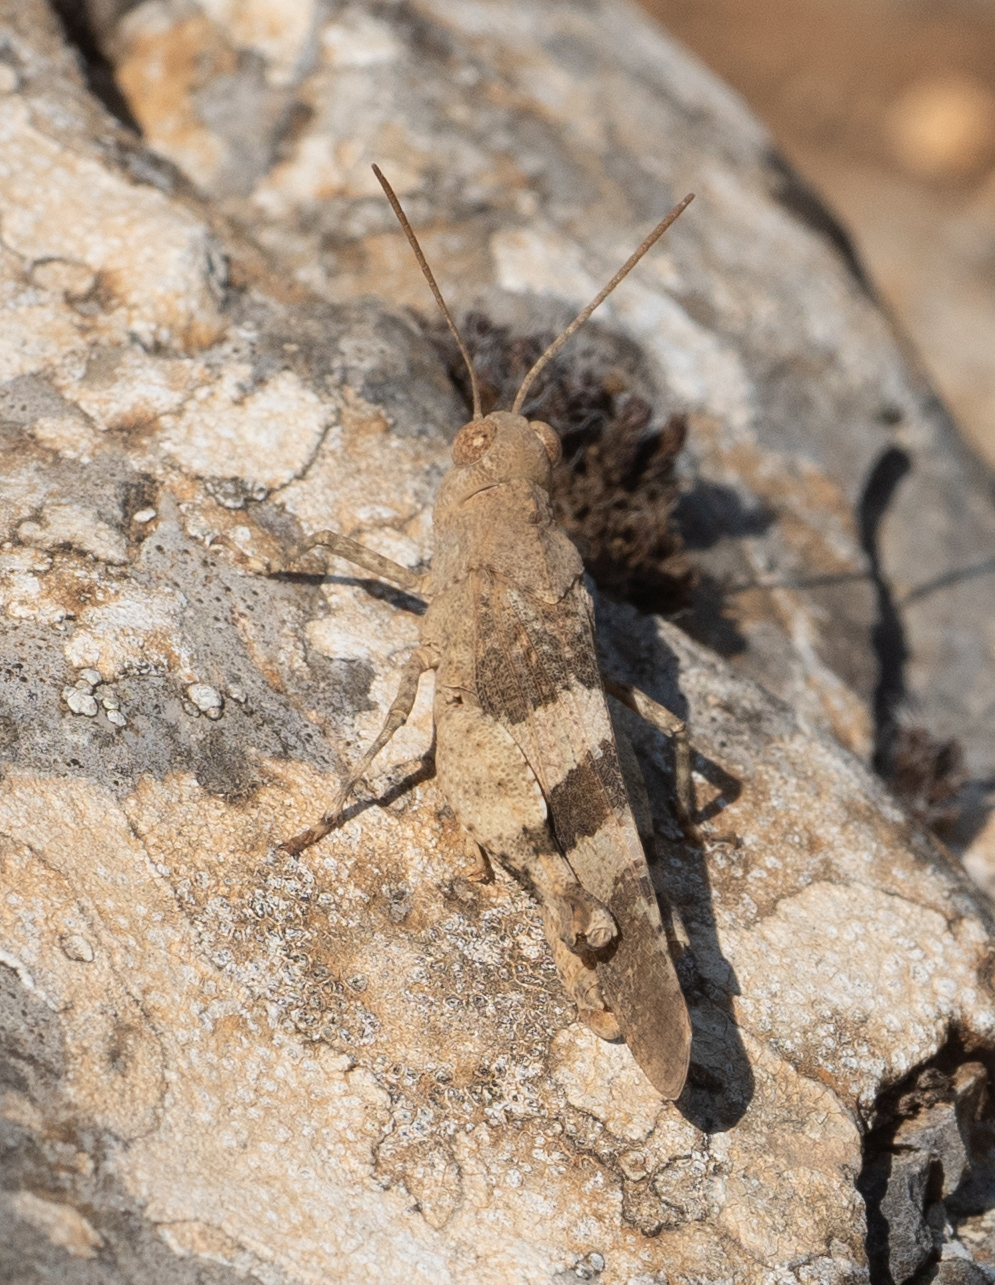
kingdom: Animalia
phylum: Arthropoda
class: Insecta
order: Orthoptera
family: Acrididae
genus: Oedipoda
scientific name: Oedipoda caerulescens
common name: Blue-winged grasshopper
